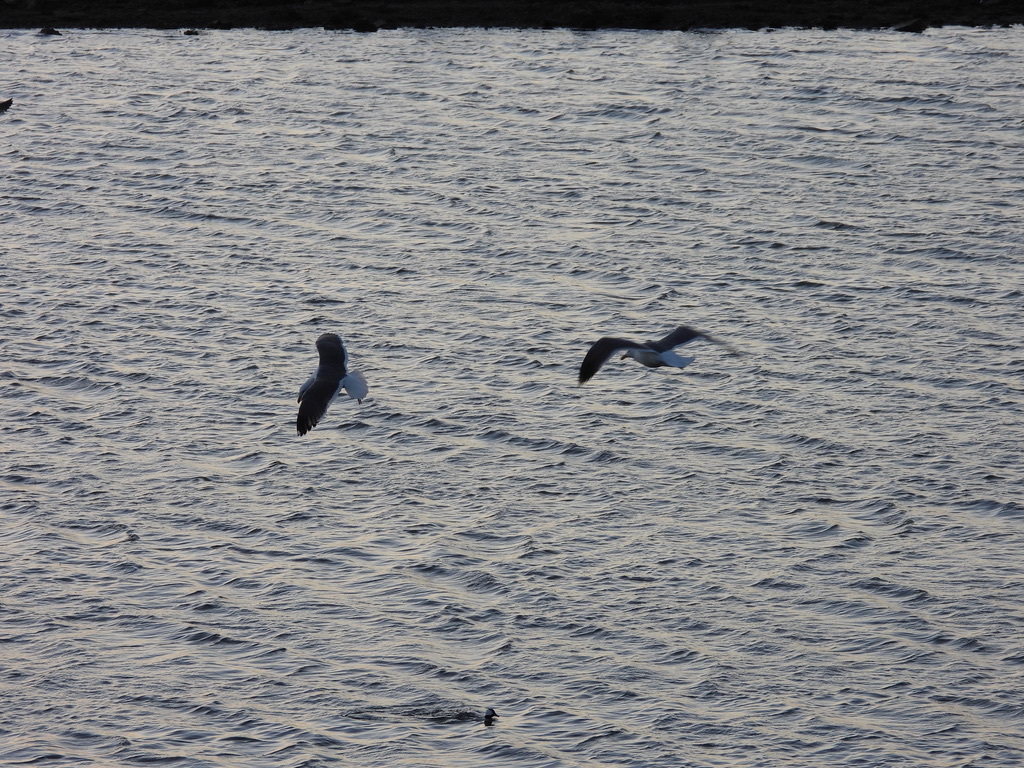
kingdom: Animalia
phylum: Chordata
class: Aves
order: Charadriiformes
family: Laridae
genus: Larus
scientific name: Larus occidentalis
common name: Western gull
